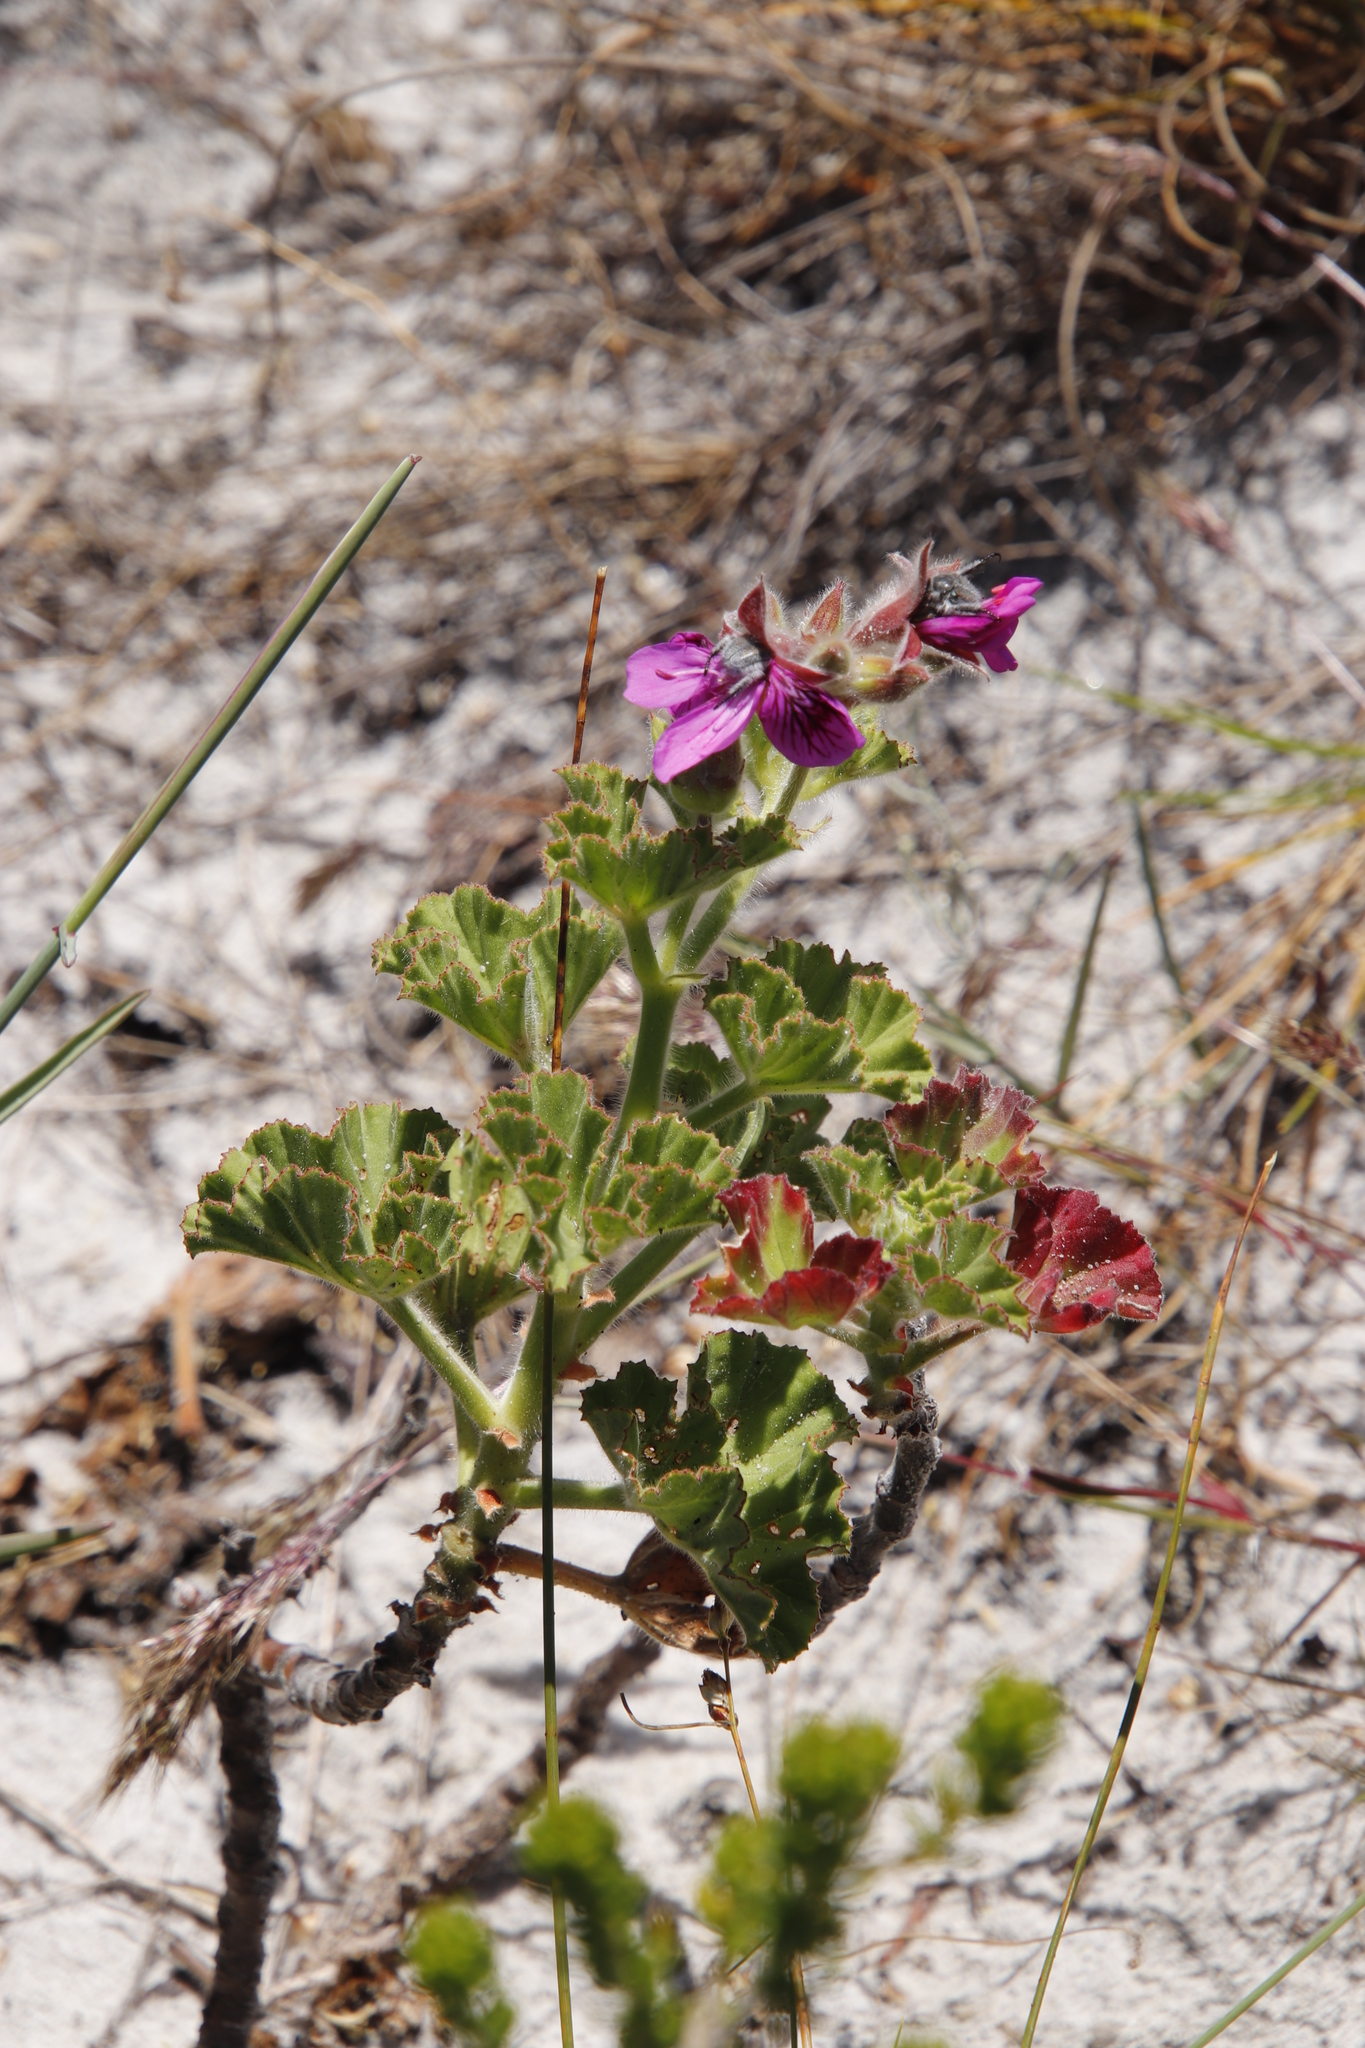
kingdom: Plantae
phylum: Tracheophyta
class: Magnoliopsida
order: Geraniales
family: Geraniaceae
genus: Pelargonium
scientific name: Pelargonium cucullatum
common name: Tree pelargonium
